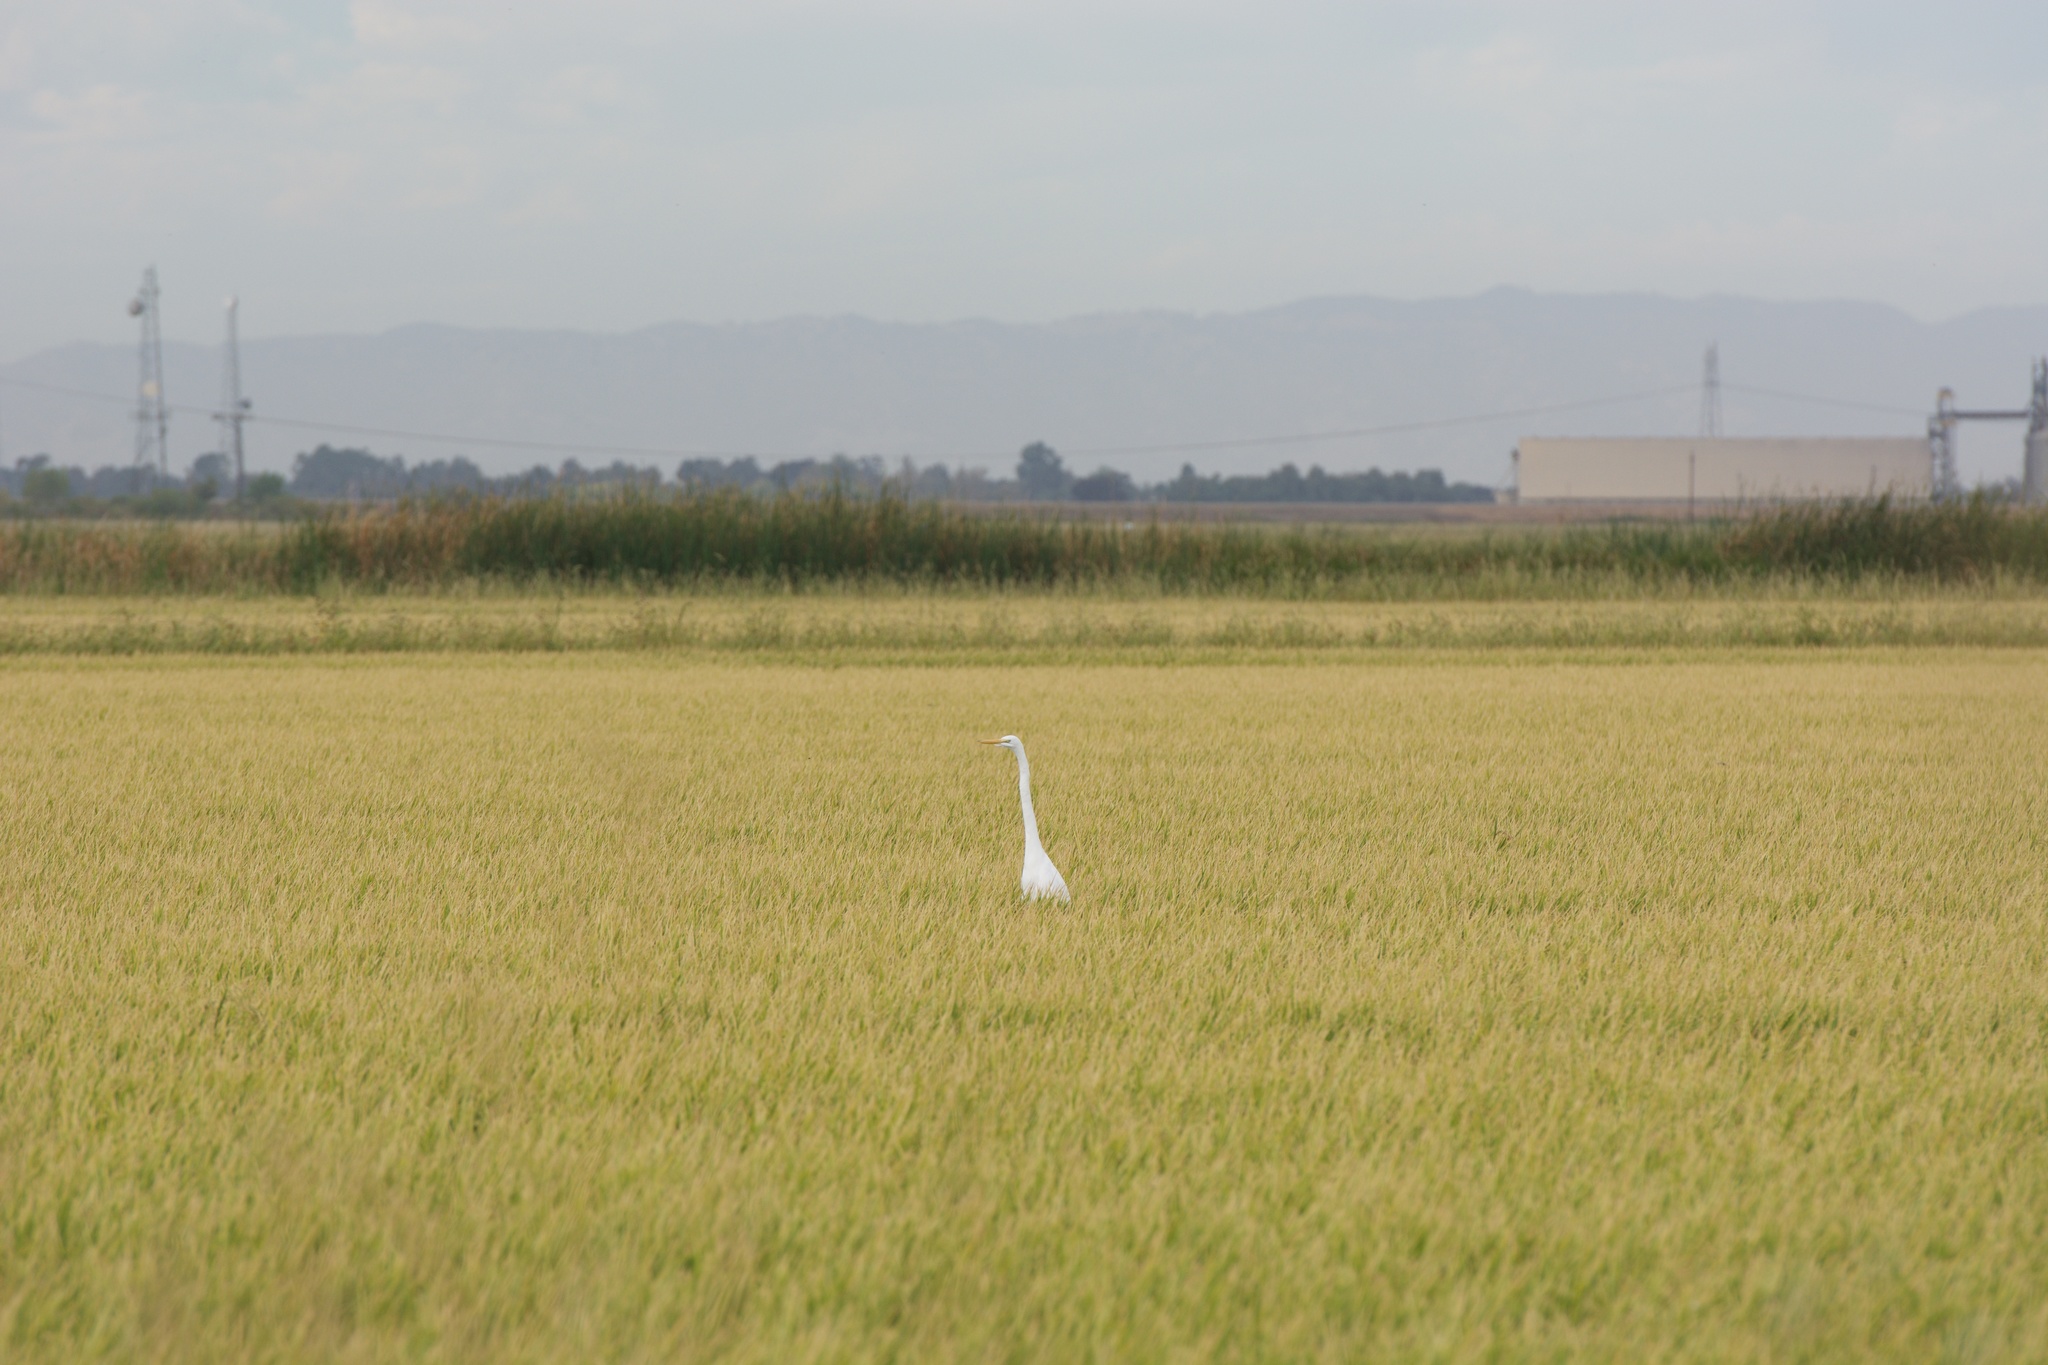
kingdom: Animalia
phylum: Chordata
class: Aves
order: Pelecaniformes
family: Ardeidae
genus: Ardea
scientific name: Ardea alba
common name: Great egret
